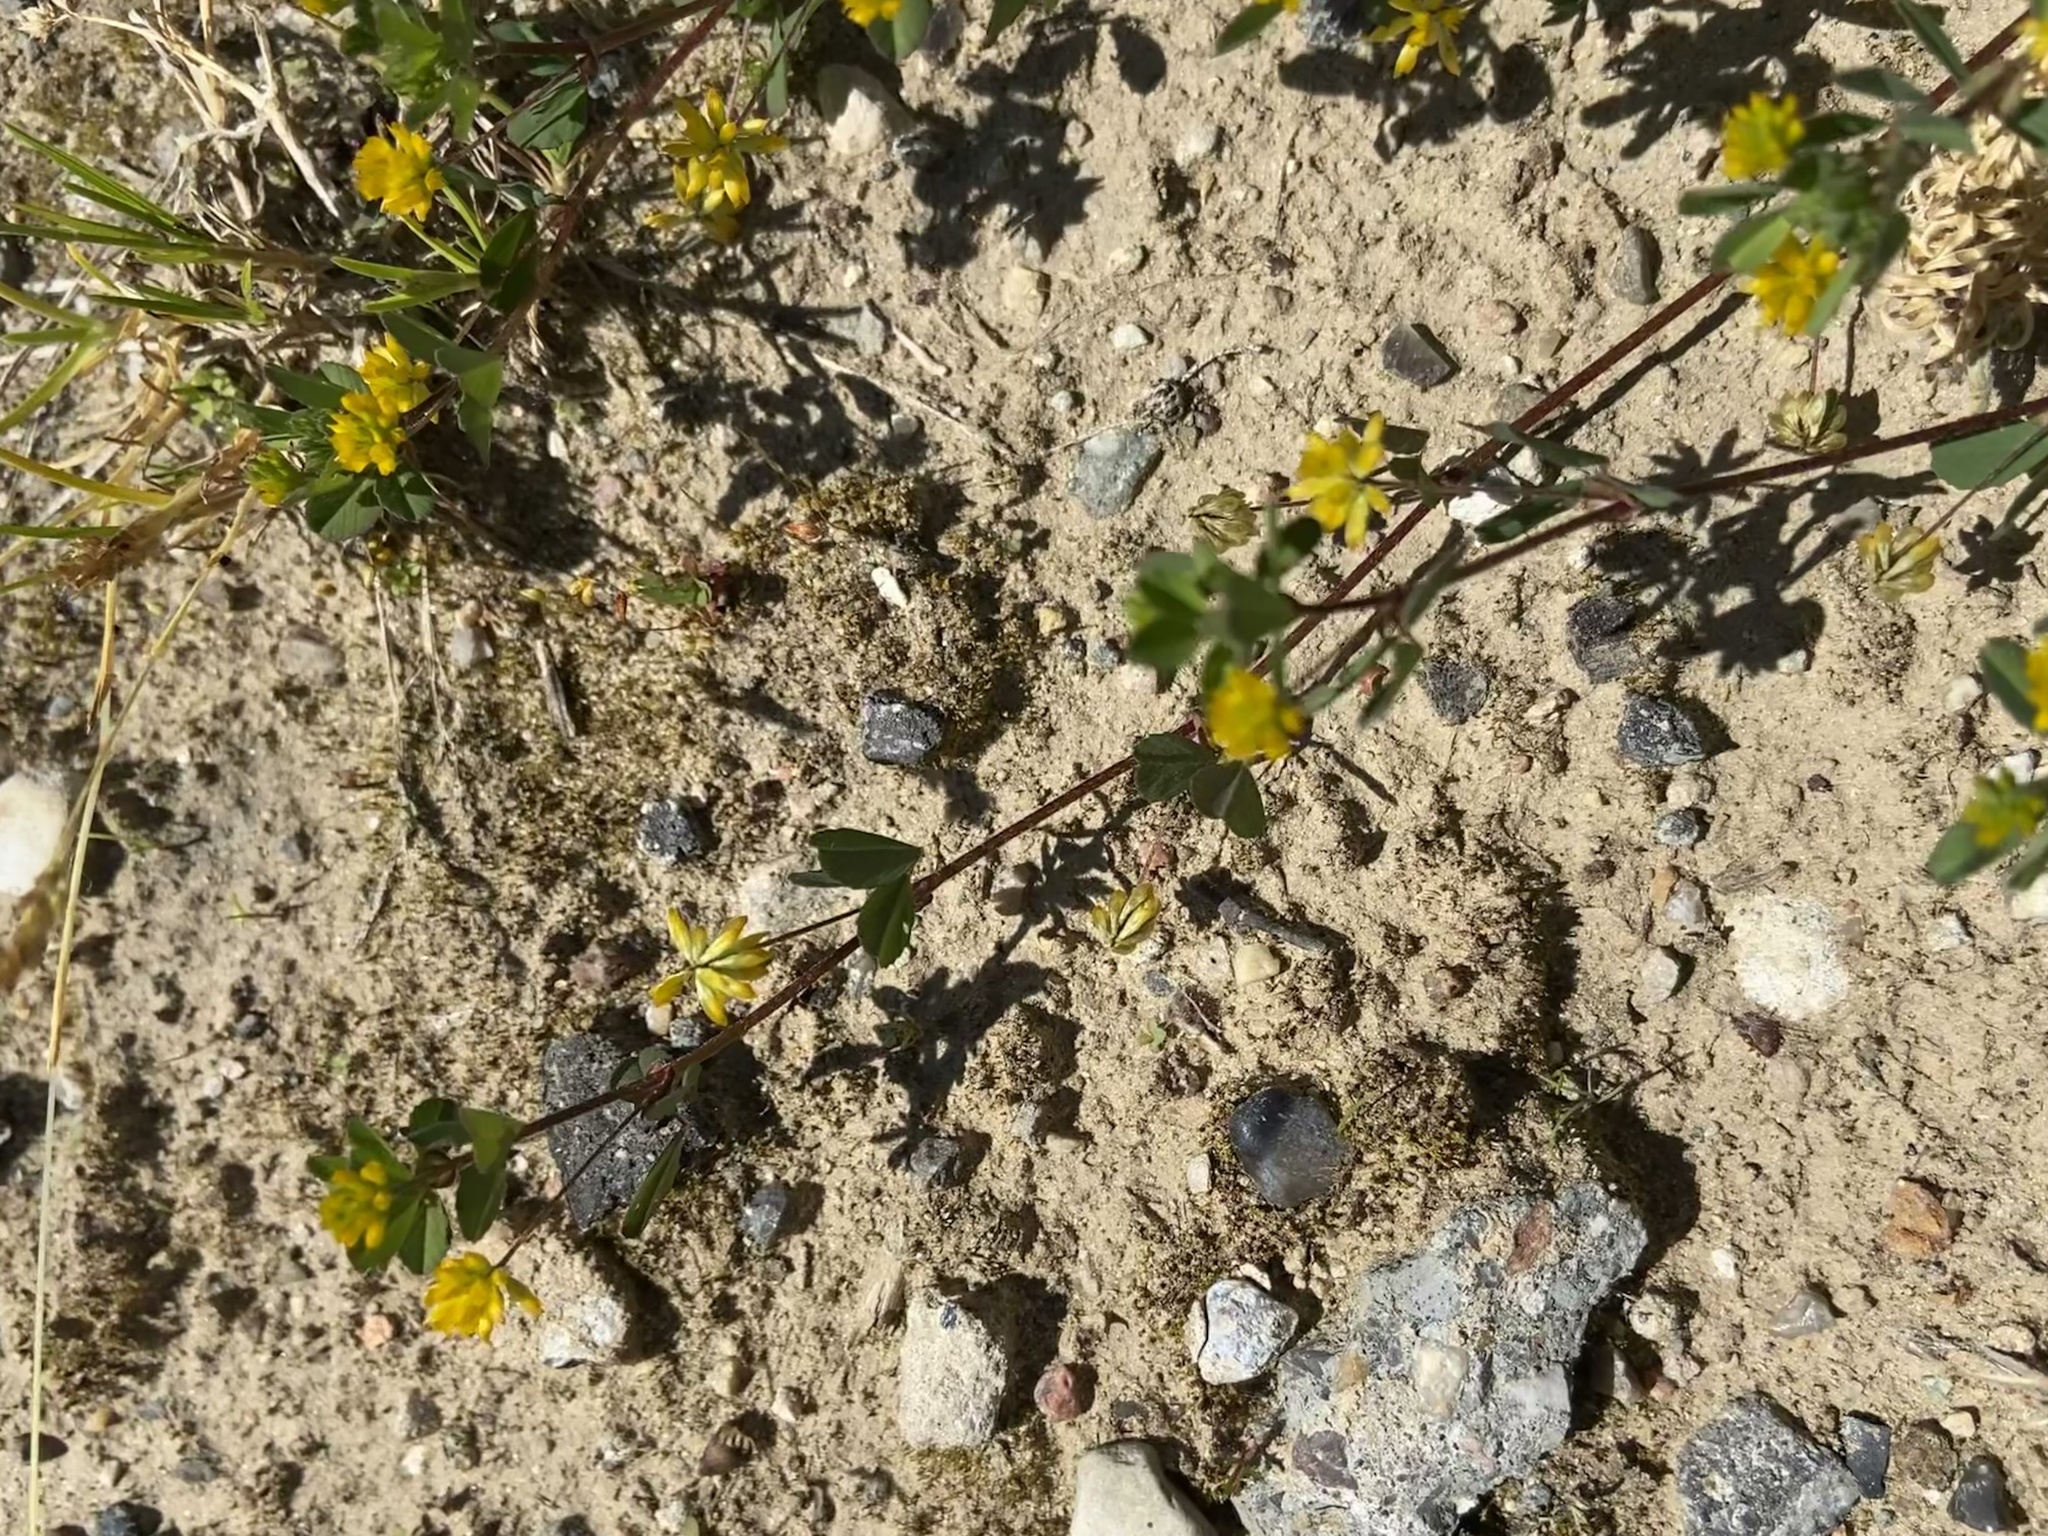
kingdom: Plantae
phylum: Tracheophyta
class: Magnoliopsida
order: Fabales
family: Fabaceae
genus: Trifolium
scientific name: Trifolium dubium
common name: Suckling clover
